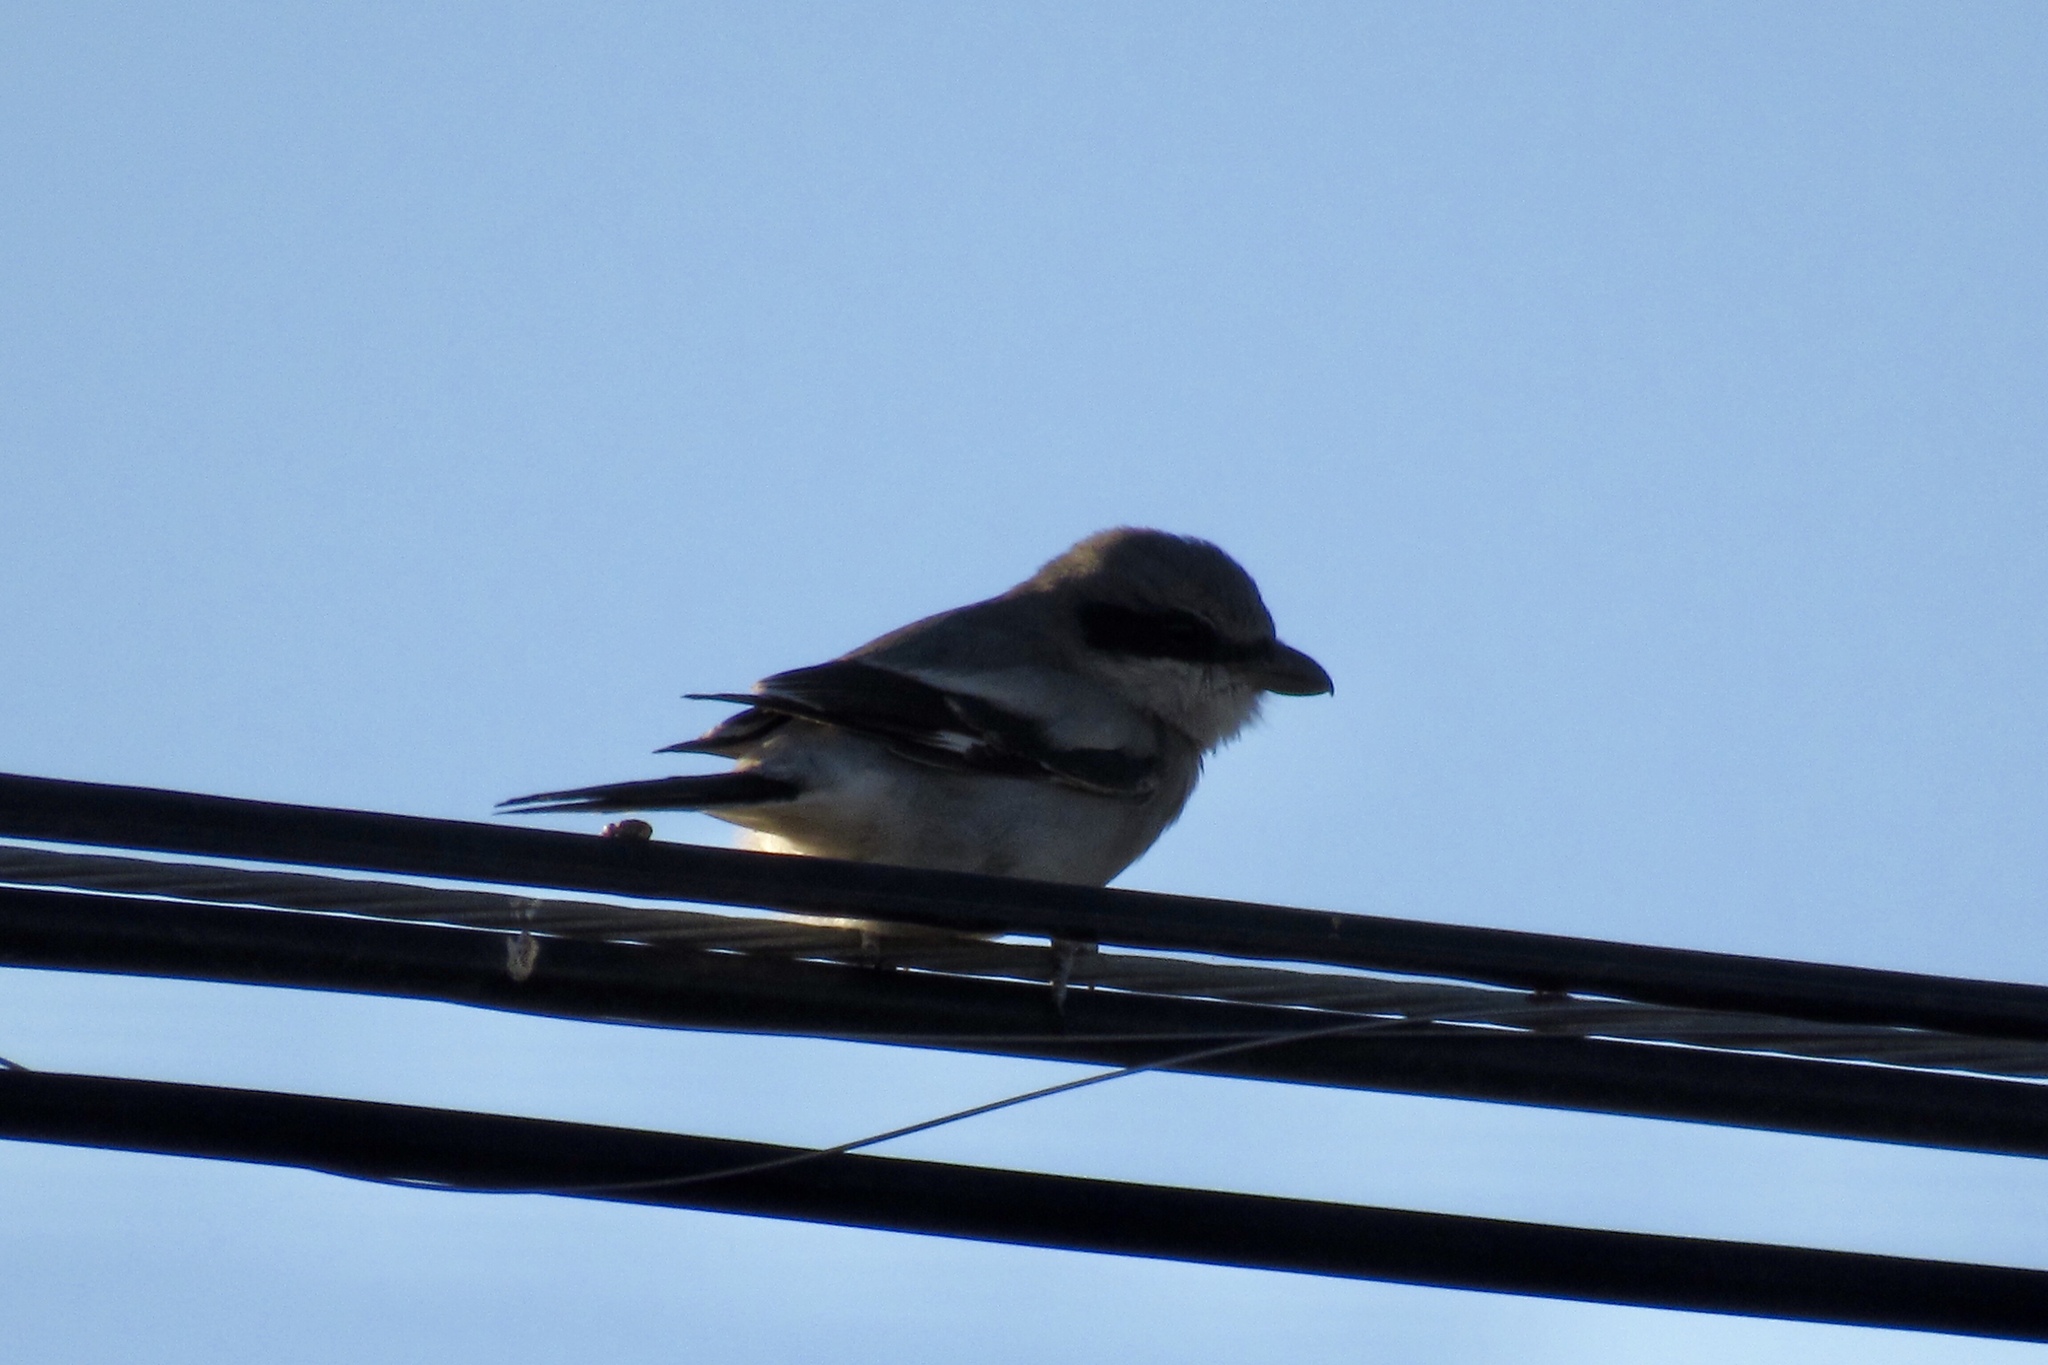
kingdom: Animalia
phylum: Chordata
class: Aves
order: Passeriformes
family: Laniidae
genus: Lanius
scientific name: Lanius ludovicianus
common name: Loggerhead shrike
